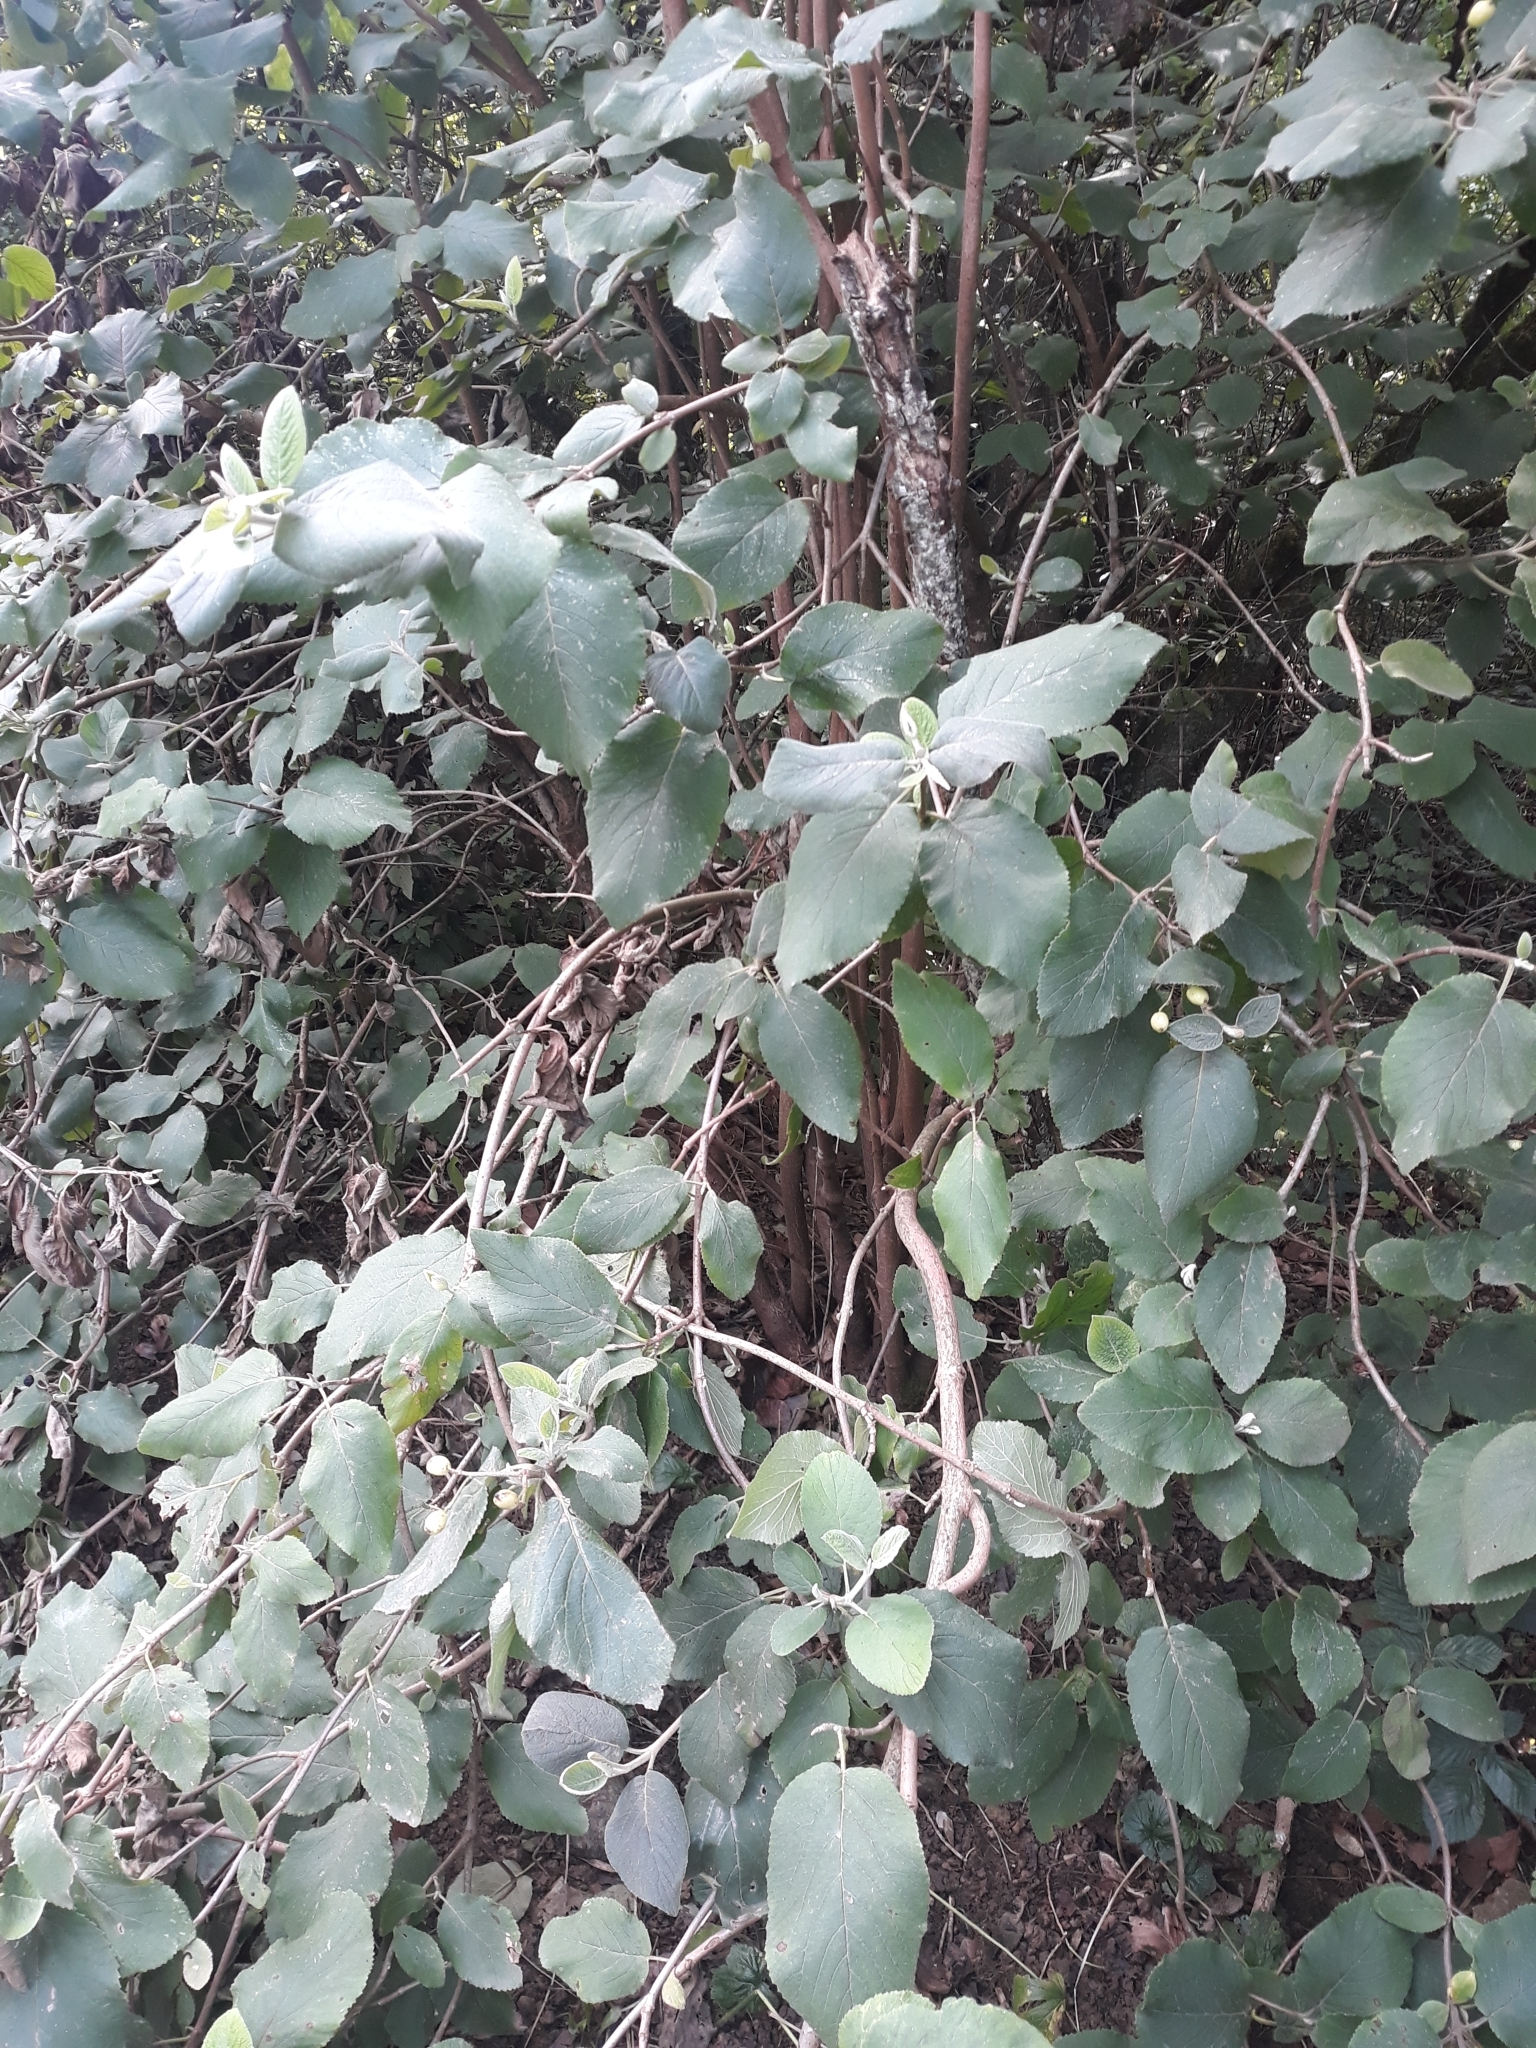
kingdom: Plantae
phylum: Tracheophyta
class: Magnoliopsida
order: Dipsacales
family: Viburnaceae
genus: Viburnum
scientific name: Viburnum lantana
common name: Wayfaring tree
